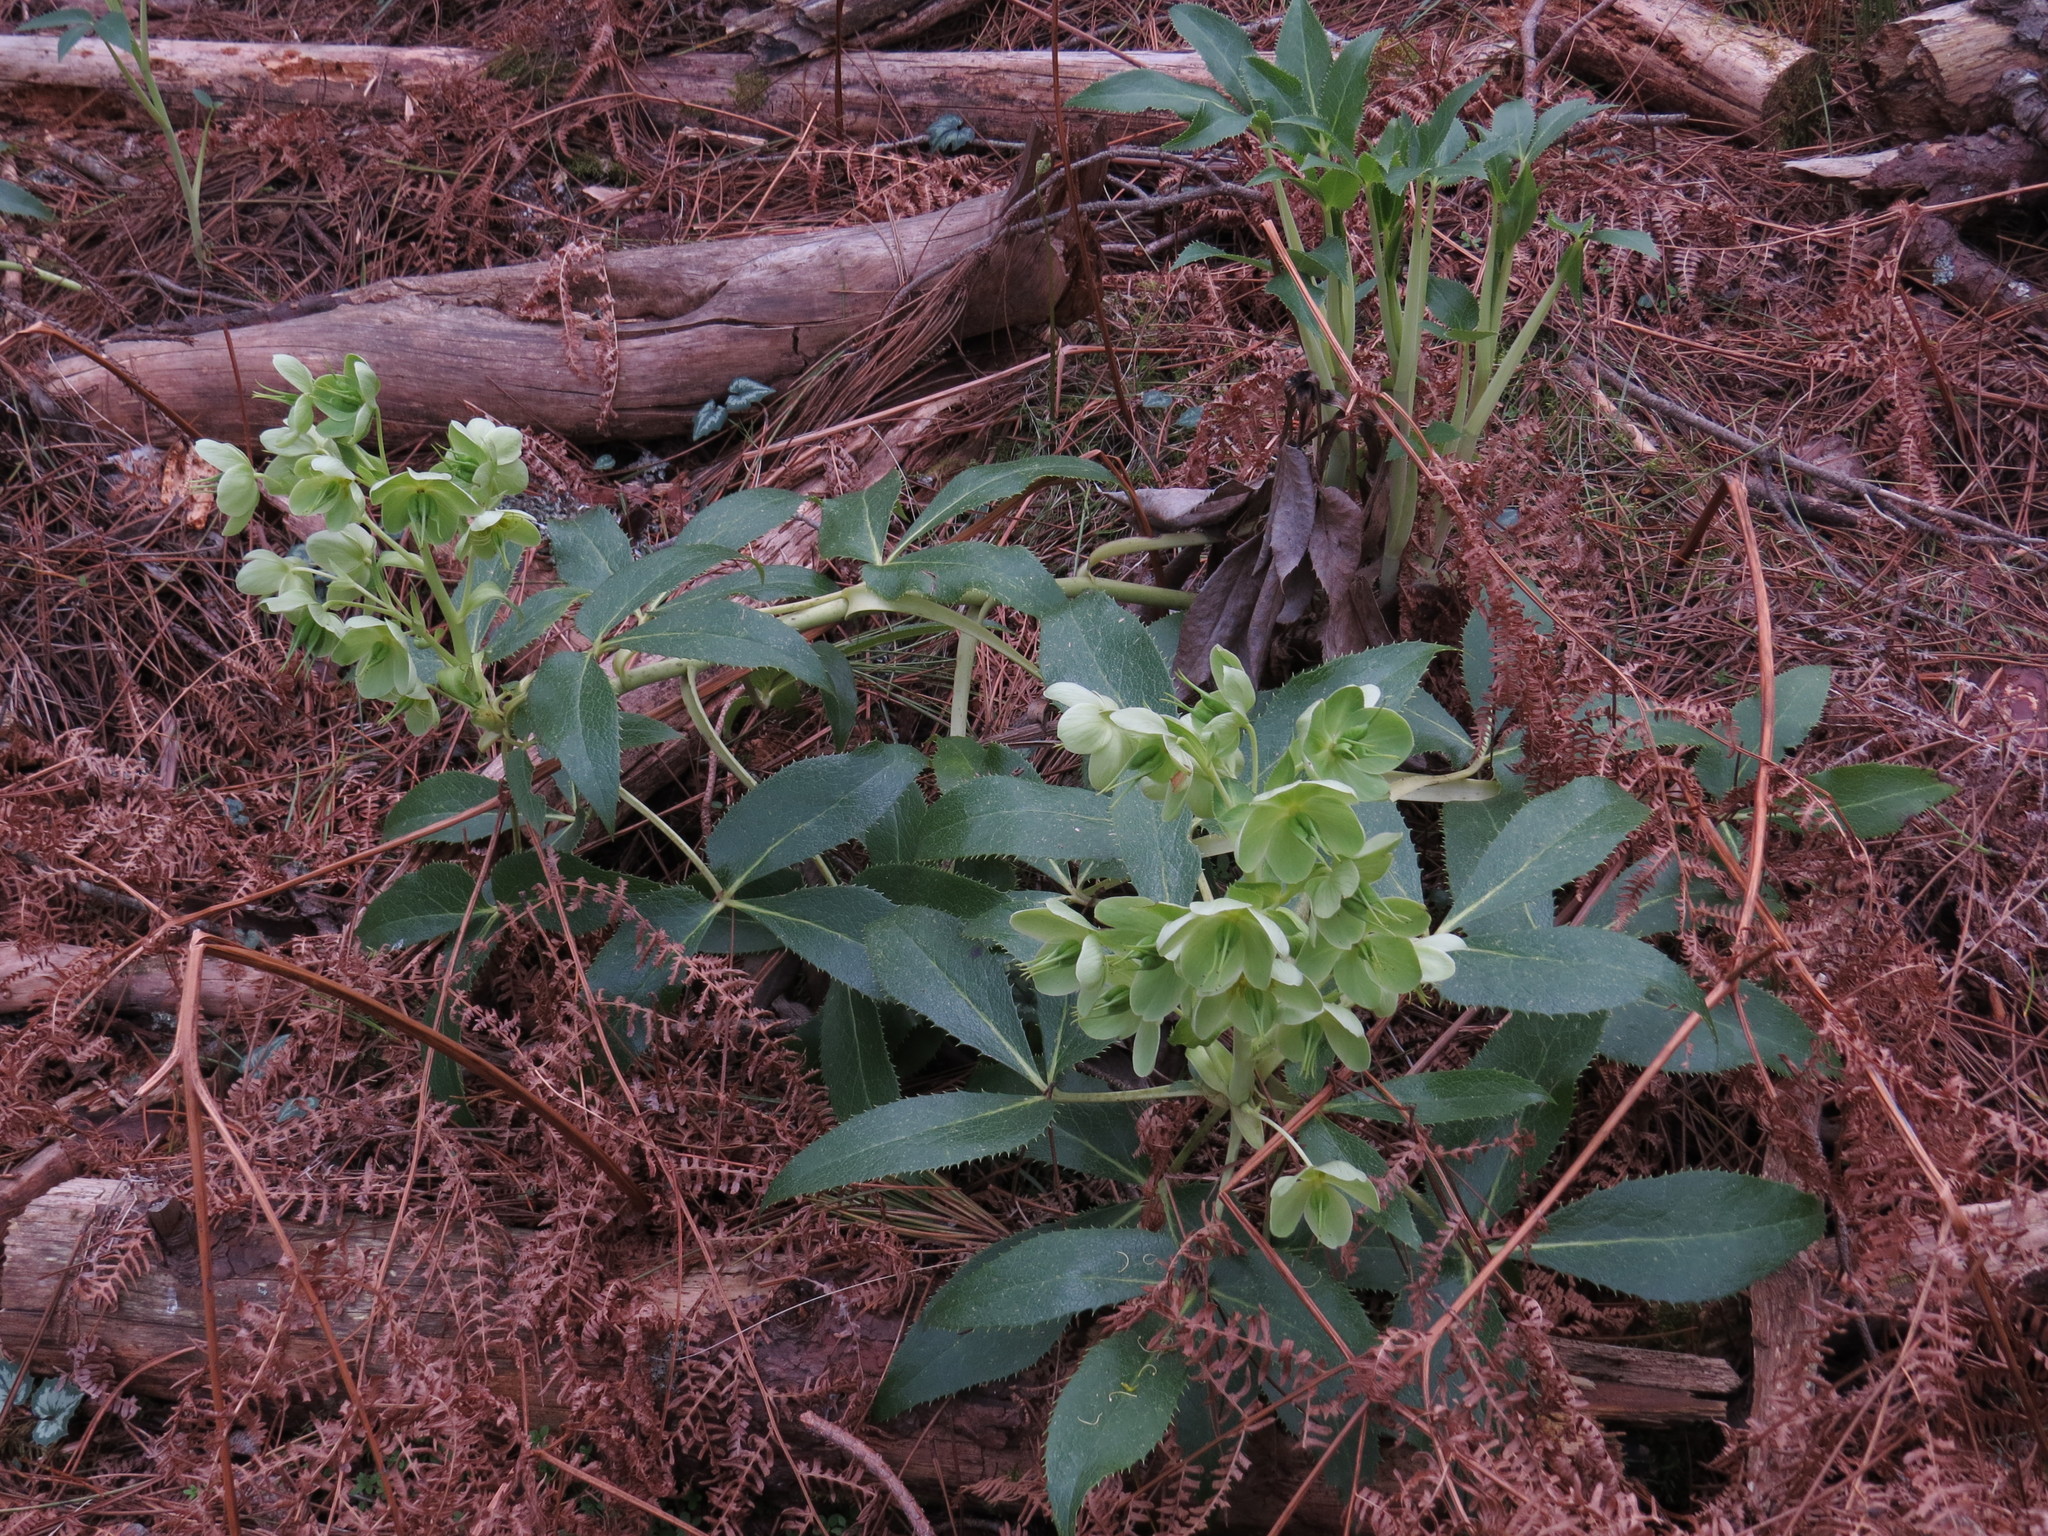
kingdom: Plantae
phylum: Tracheophyta
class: Magnoliopsida
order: Ranunculales
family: Ranunculaceae
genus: Helleborus
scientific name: Helleborus argutifolius
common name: Corsican hellebore
